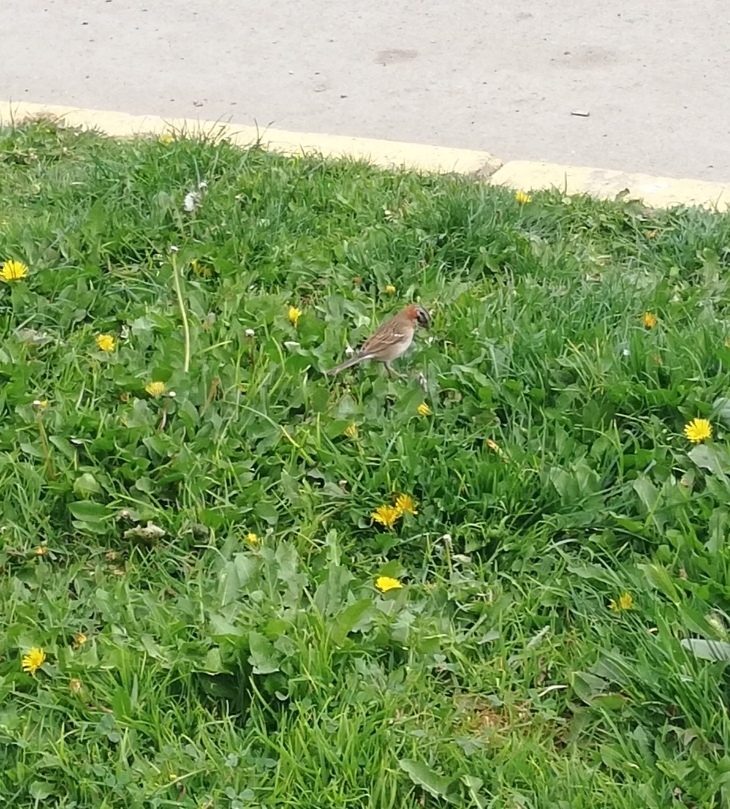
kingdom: Animalia
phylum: Chordata
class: Aves
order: Passeriformes
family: Passerellidae
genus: Zonotrichia
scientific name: Zonotrichia capensis
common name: Rufous-collared sparrow
